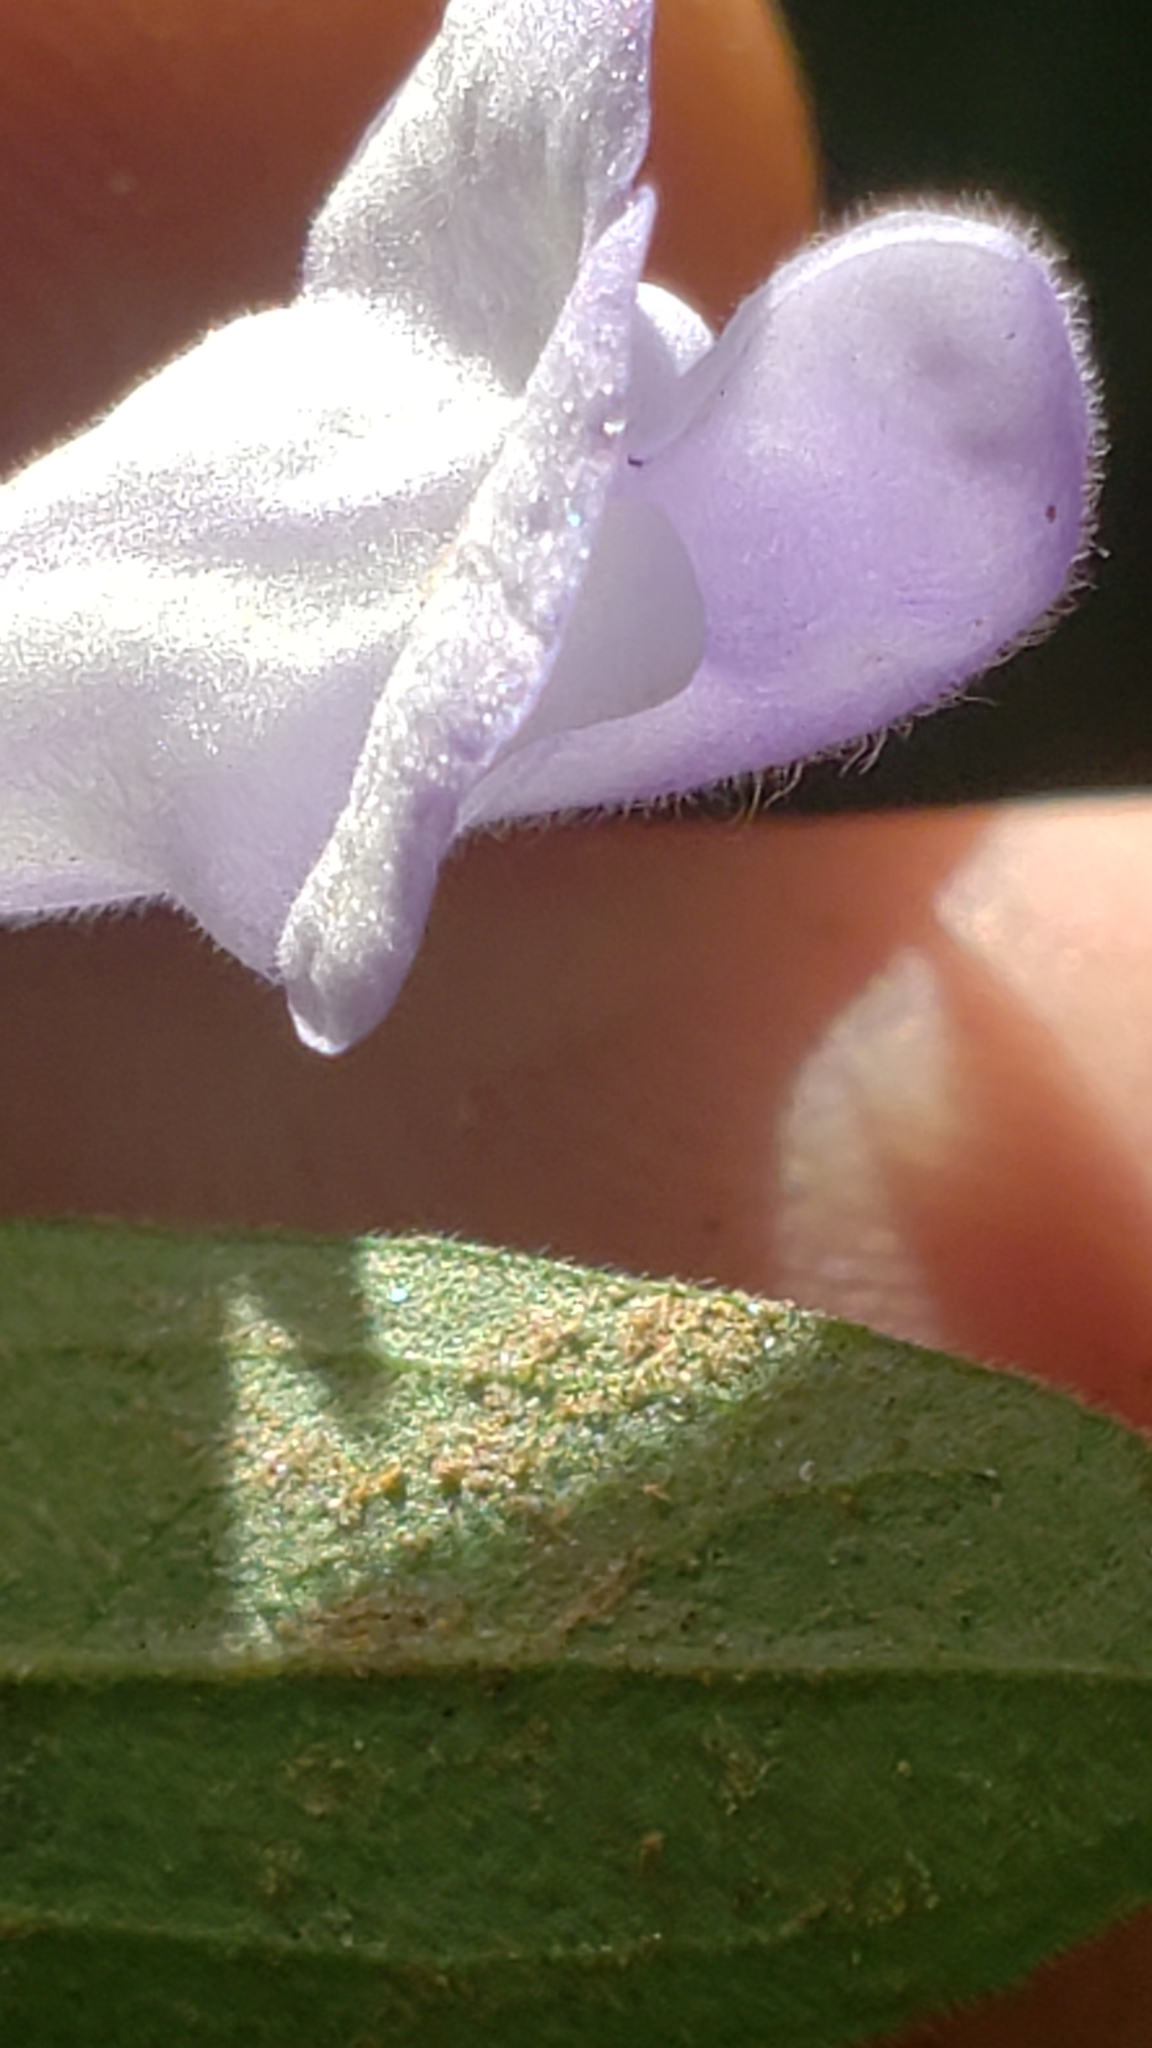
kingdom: Plantae
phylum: Tracheophyta
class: Magnoliopsida
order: Lamiales
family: Lamiaceae
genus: Scutellaria
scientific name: Scutellaria integrifolia
